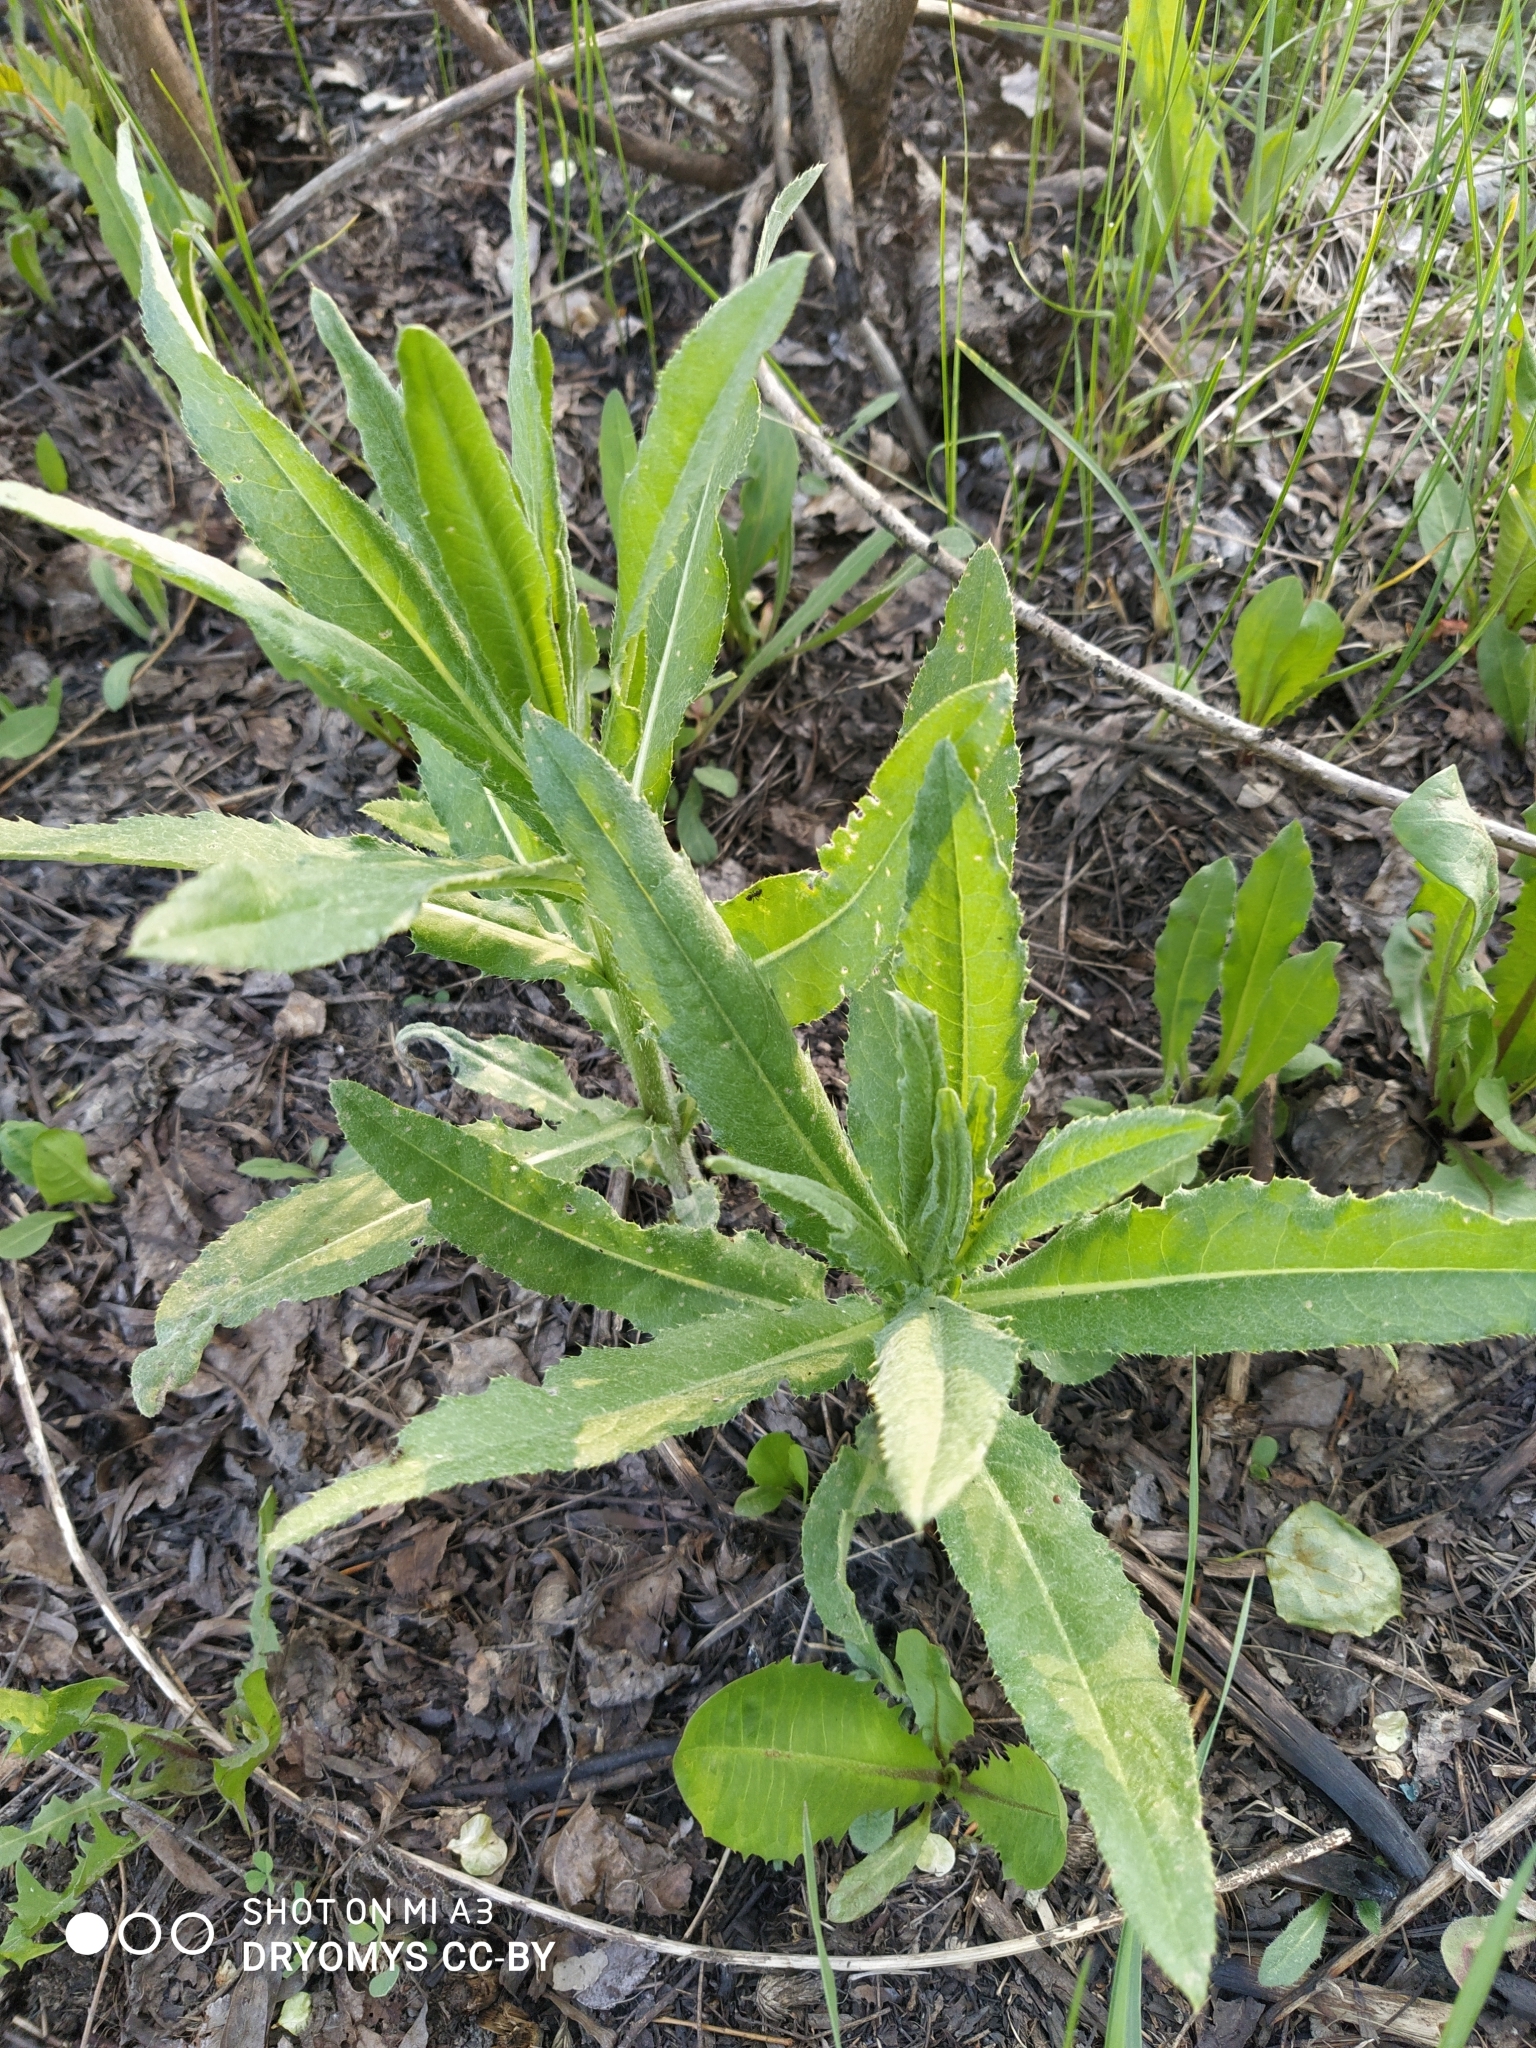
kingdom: Plantae
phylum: Tracheophyta
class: Magnoliopsida
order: Asterales
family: Asteraceae
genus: Cirsium
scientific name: Cirsium vulgare
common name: Bull thistle
